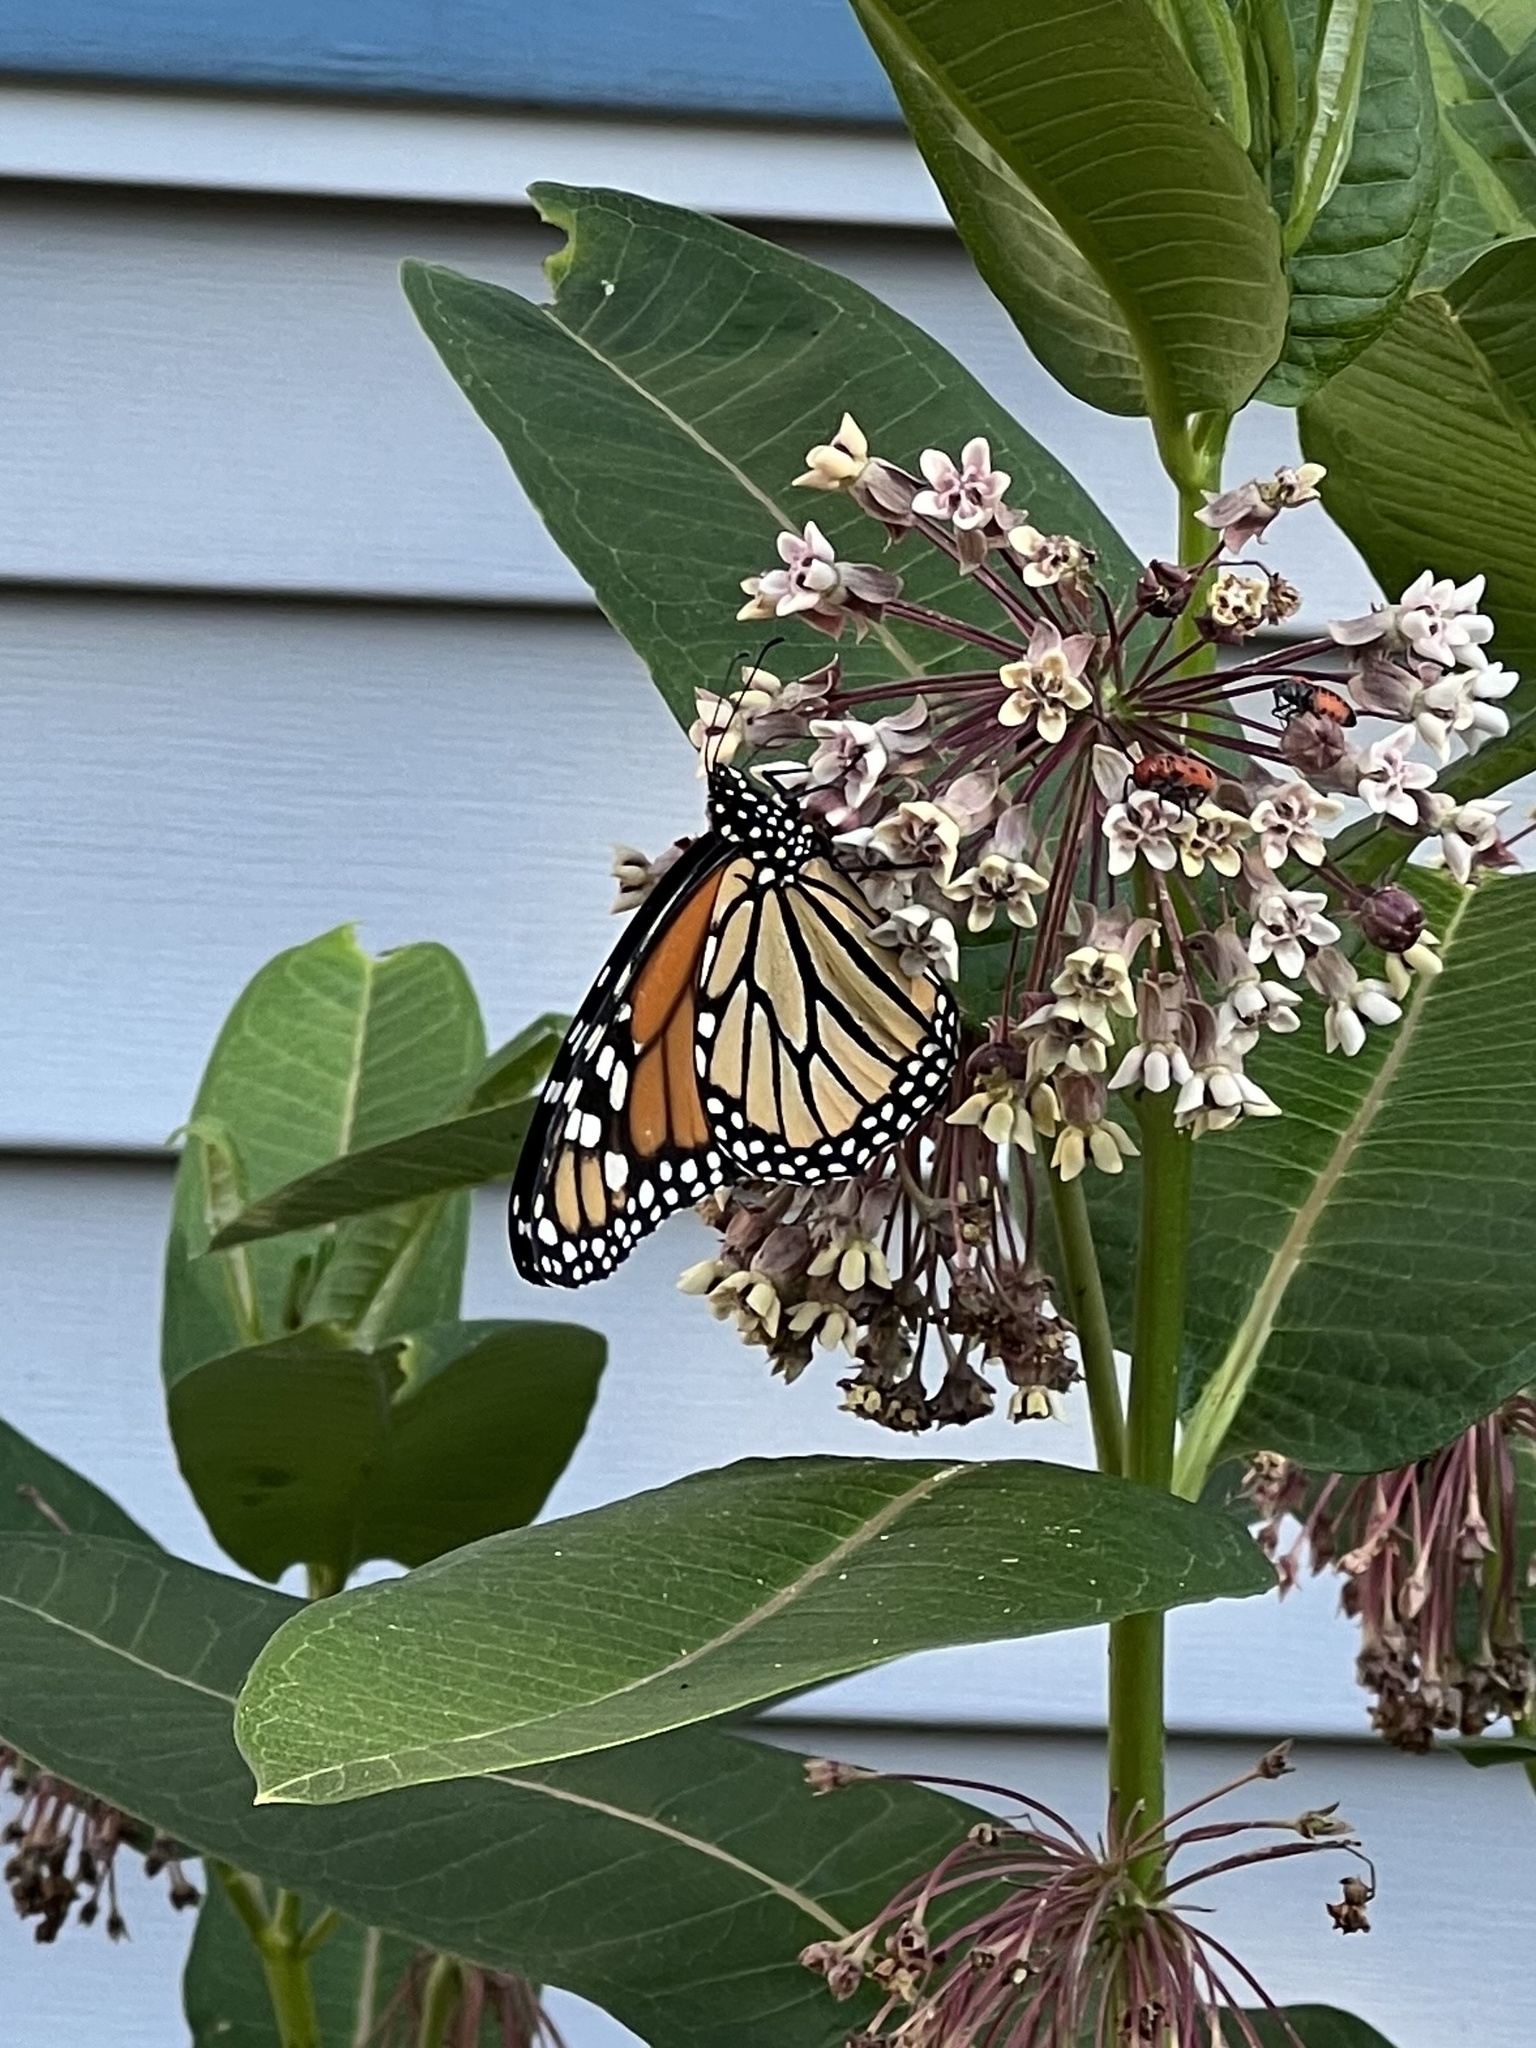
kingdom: Animalia
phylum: Arthropoda
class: Insecta
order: Lepidoptera
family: Nymphalidae
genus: Danaus
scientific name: Danaus plexippus
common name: Monarch
